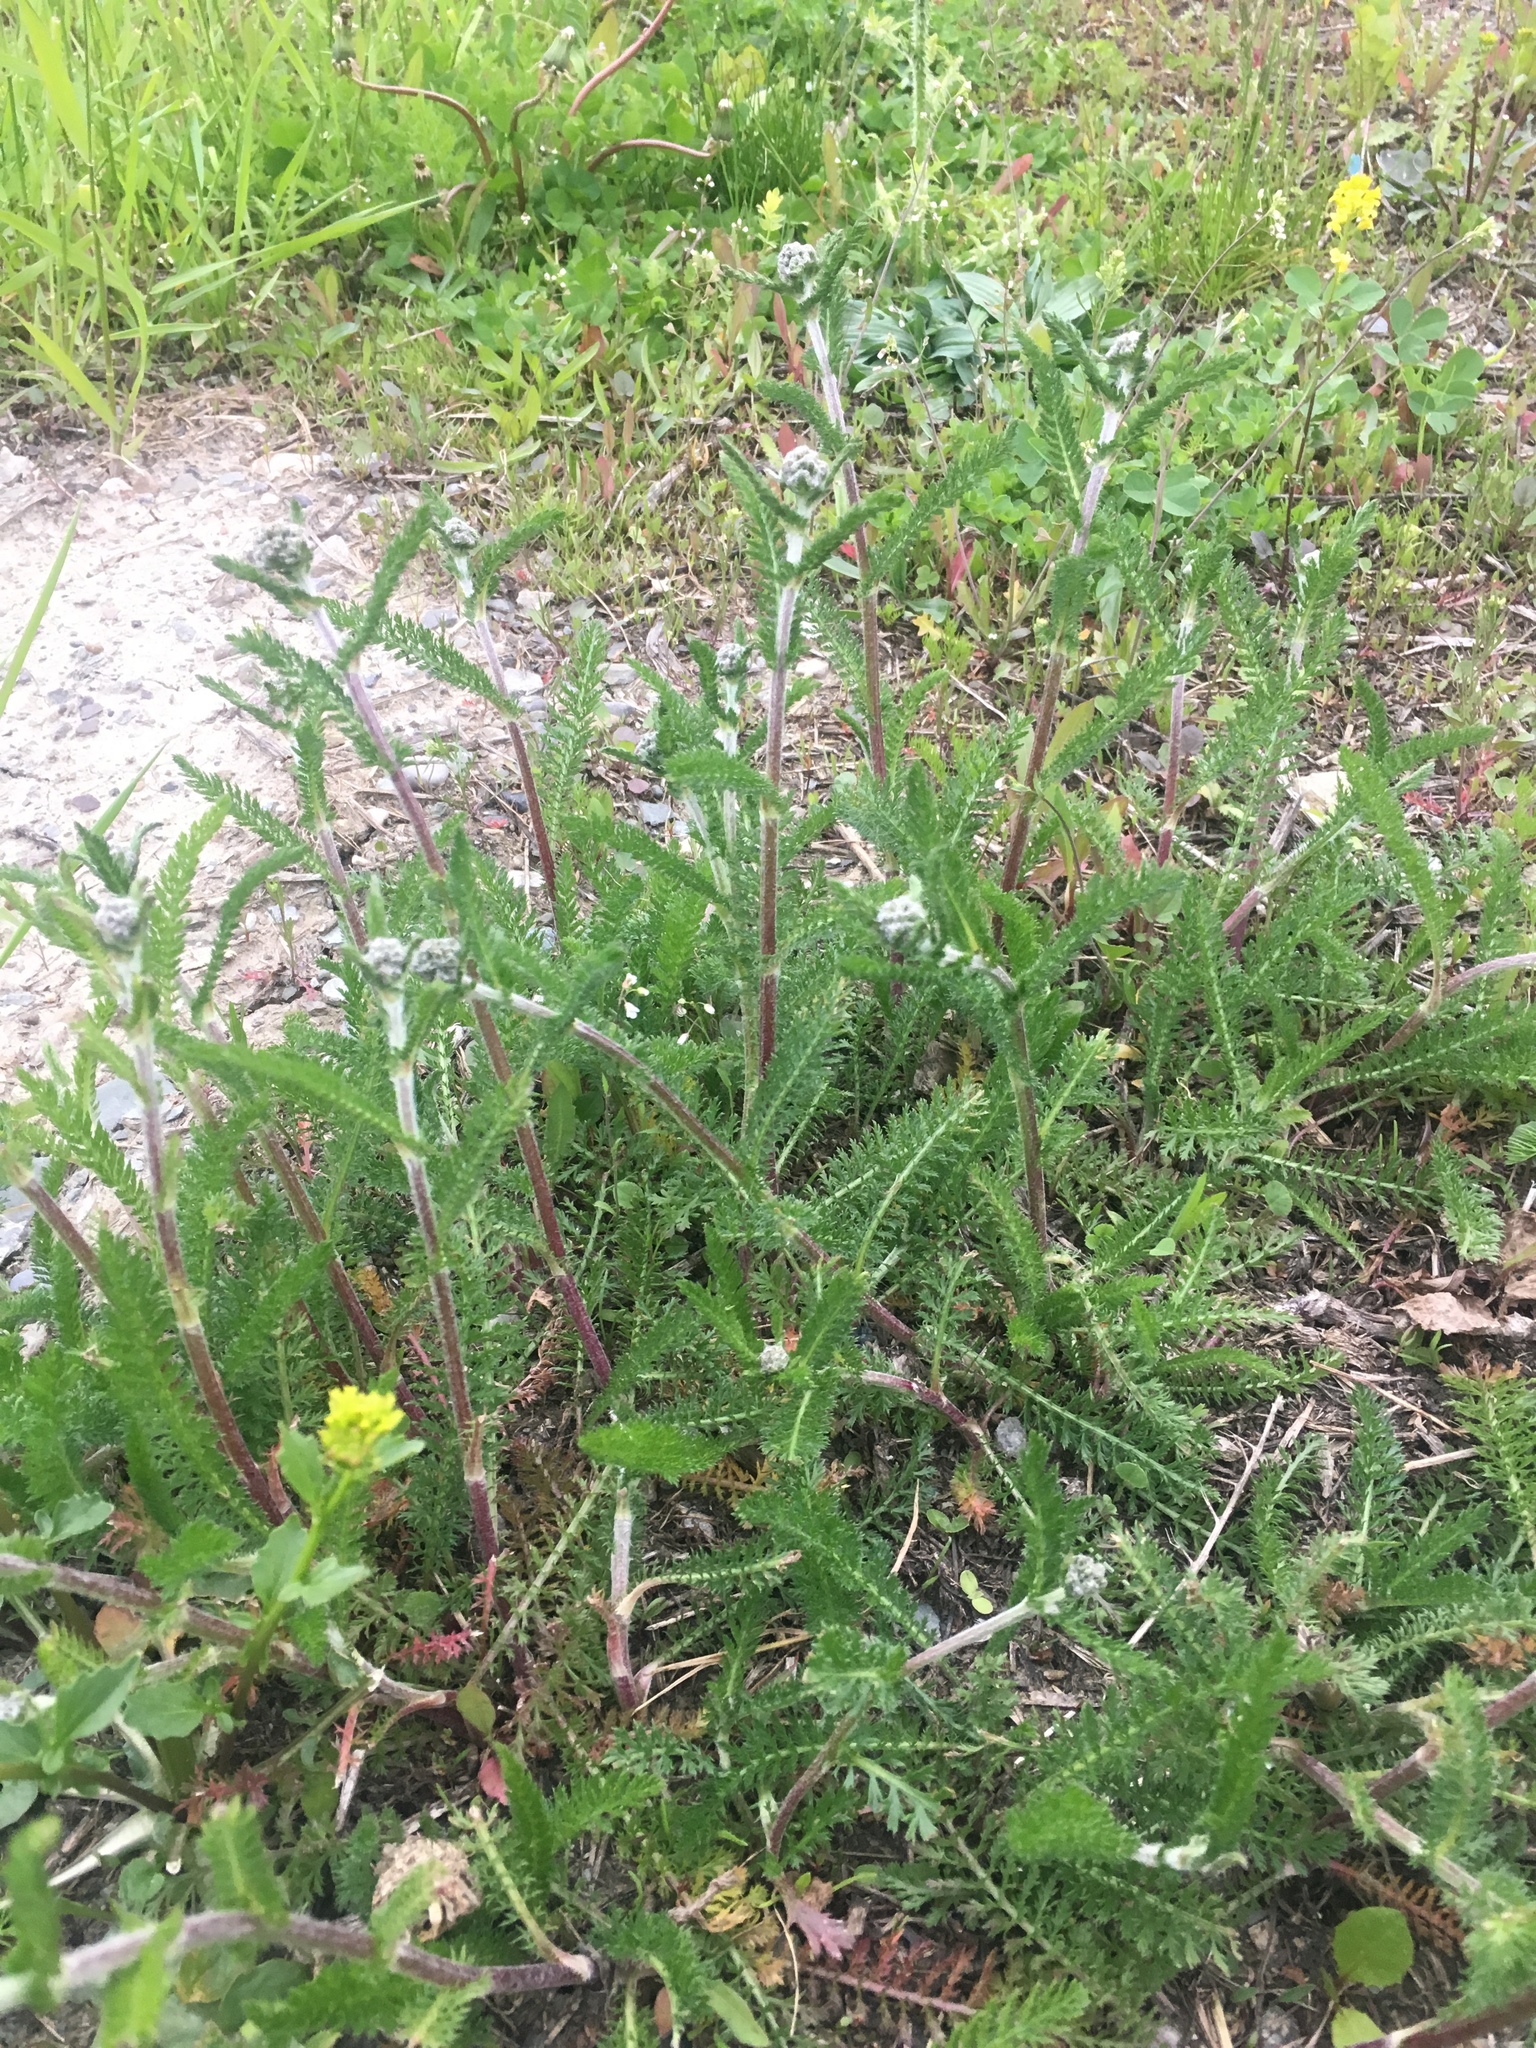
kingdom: Plantae
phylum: Tracheophyta
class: Magnoliopsida
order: Asterales
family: Asteraceae
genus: Achillea
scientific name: Achillea millefolium
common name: Yarrow
